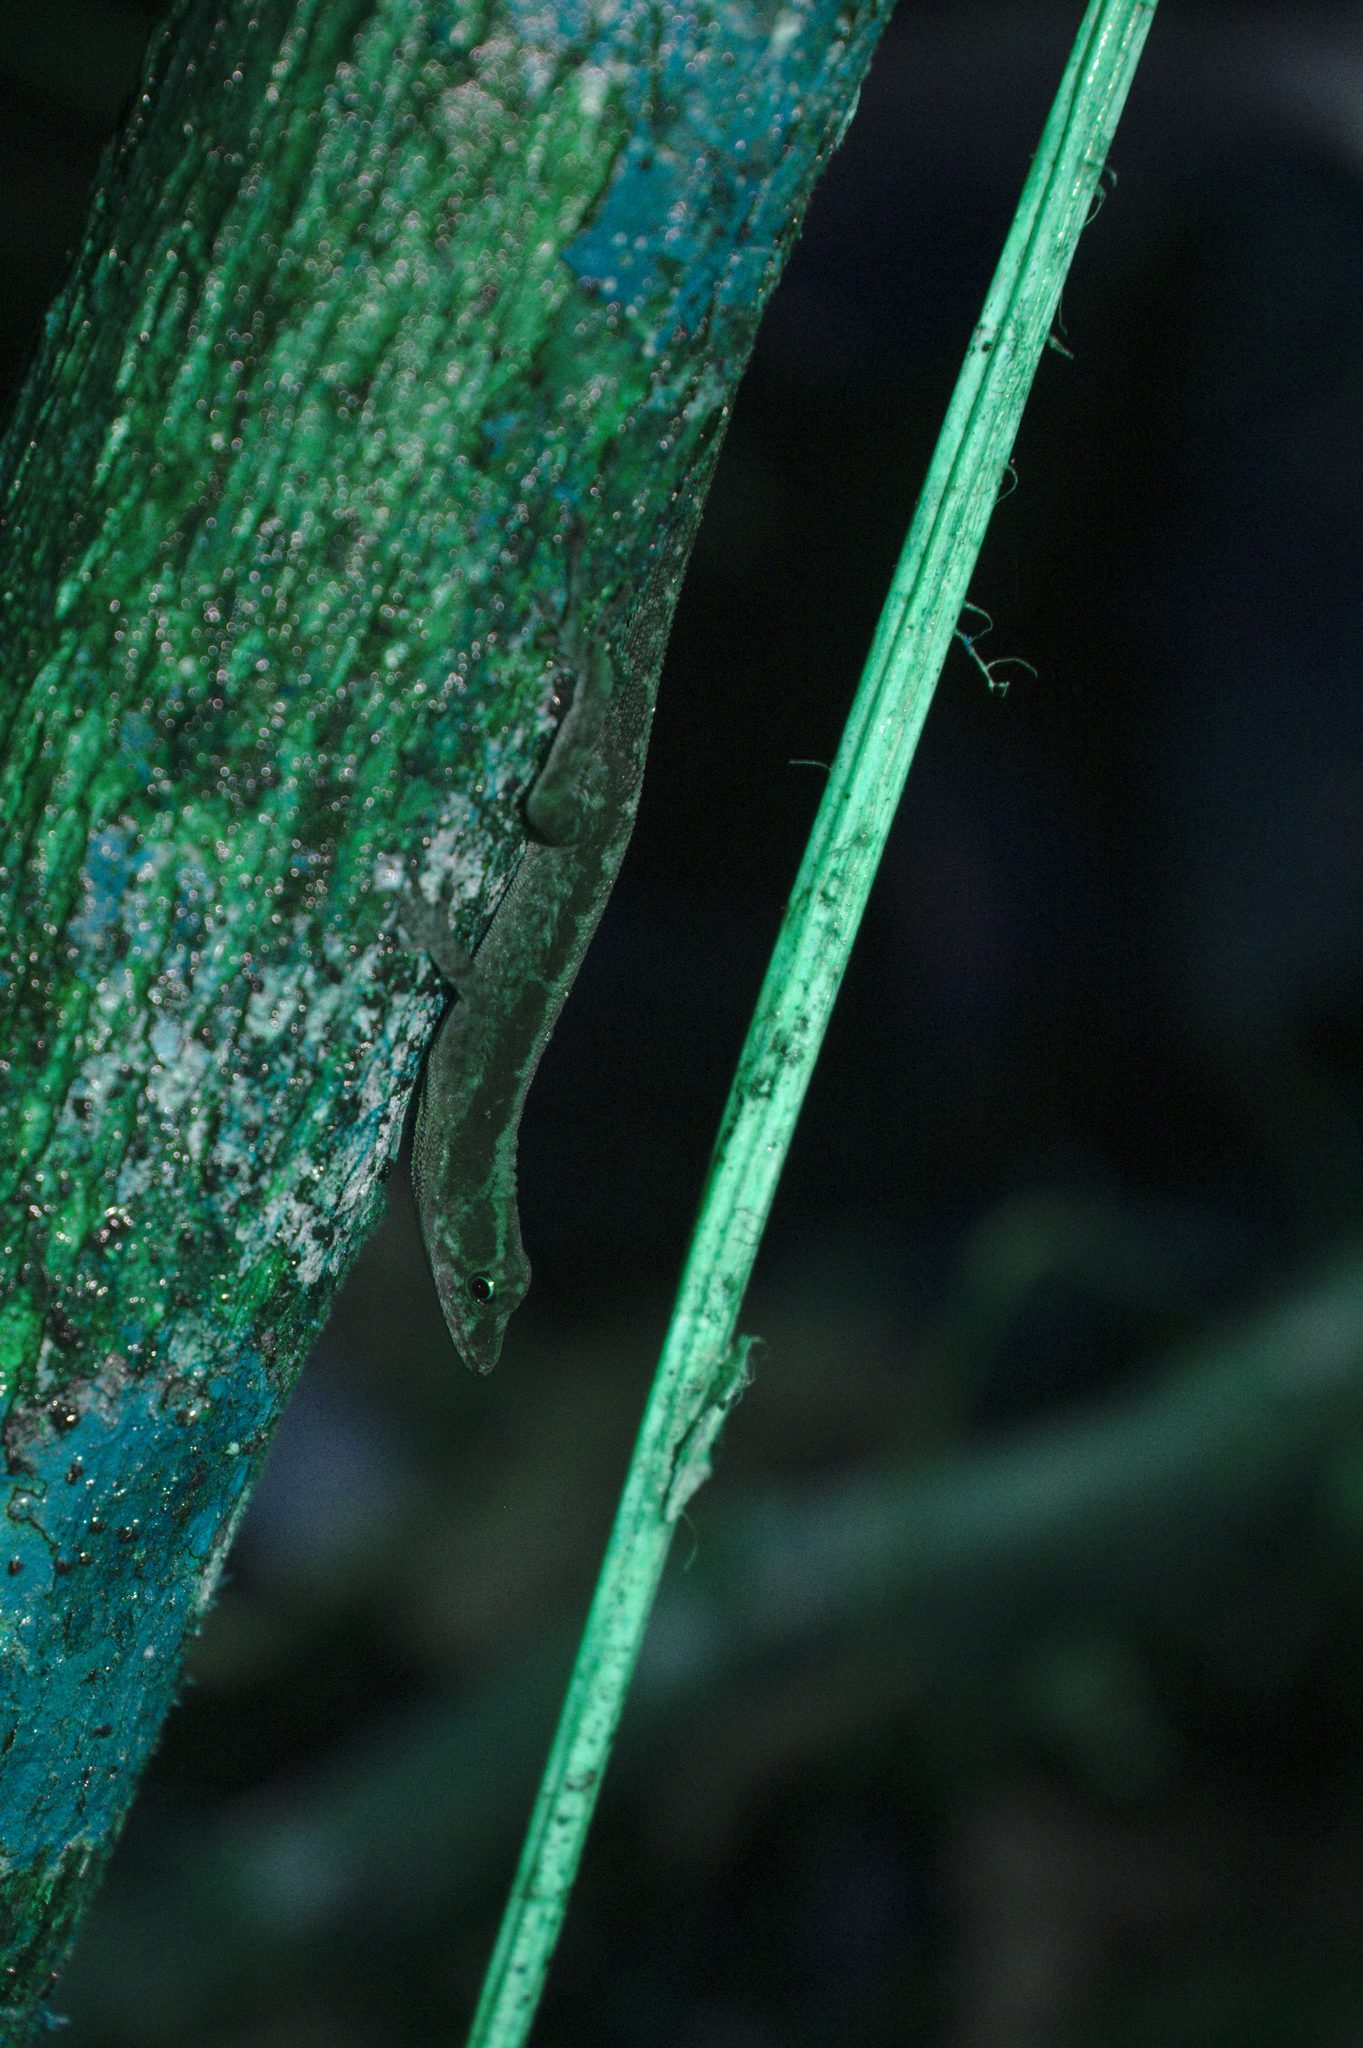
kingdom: Animalia
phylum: Chordata
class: Squamata
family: Dactyloidae
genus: Anolis
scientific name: Anolis humilis
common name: Humble anole
